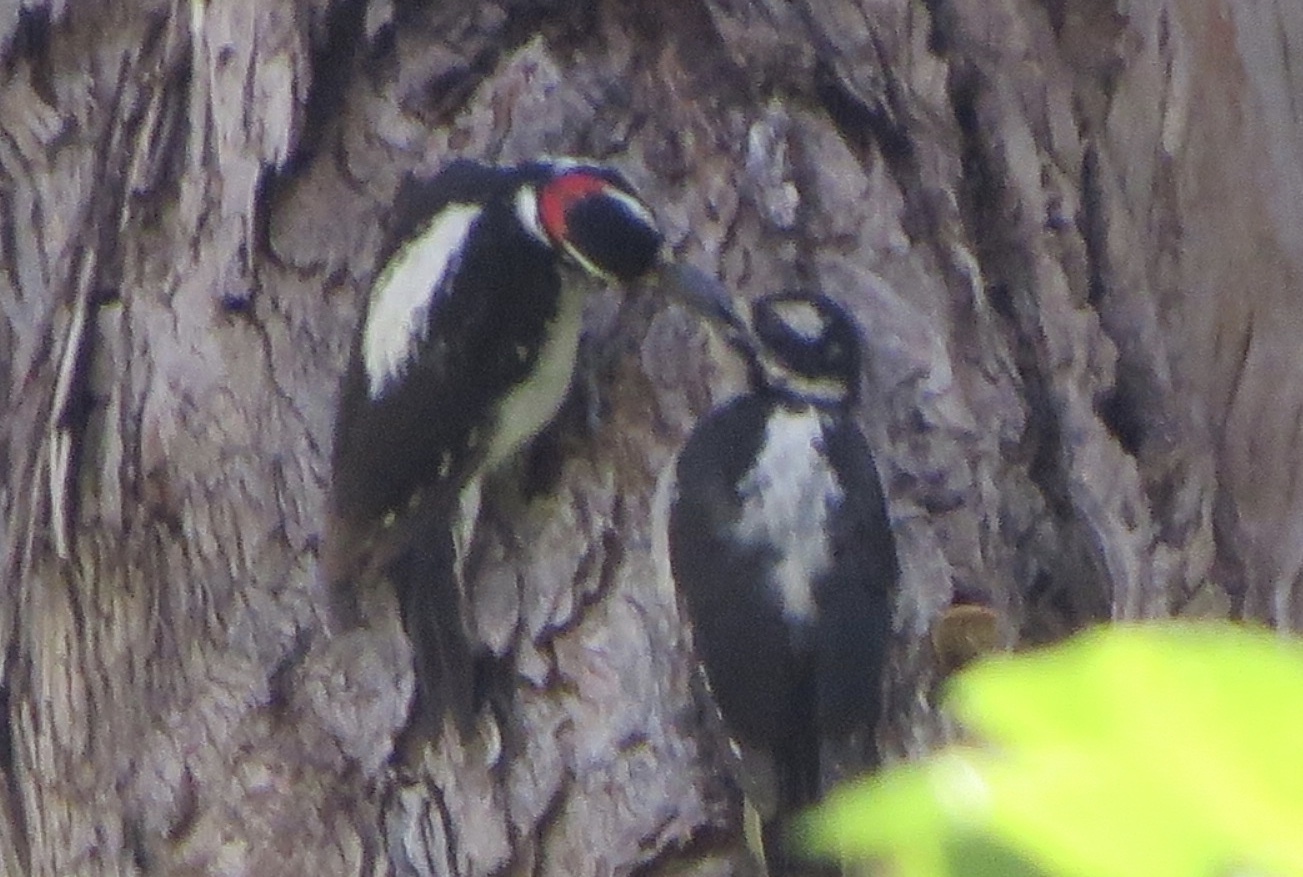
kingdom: Animalia
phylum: Chordata
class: Aves
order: Piciformes
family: Picidae
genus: Leuconotopicus
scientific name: Leuconotopicus villosus
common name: Hairy woodpecker
